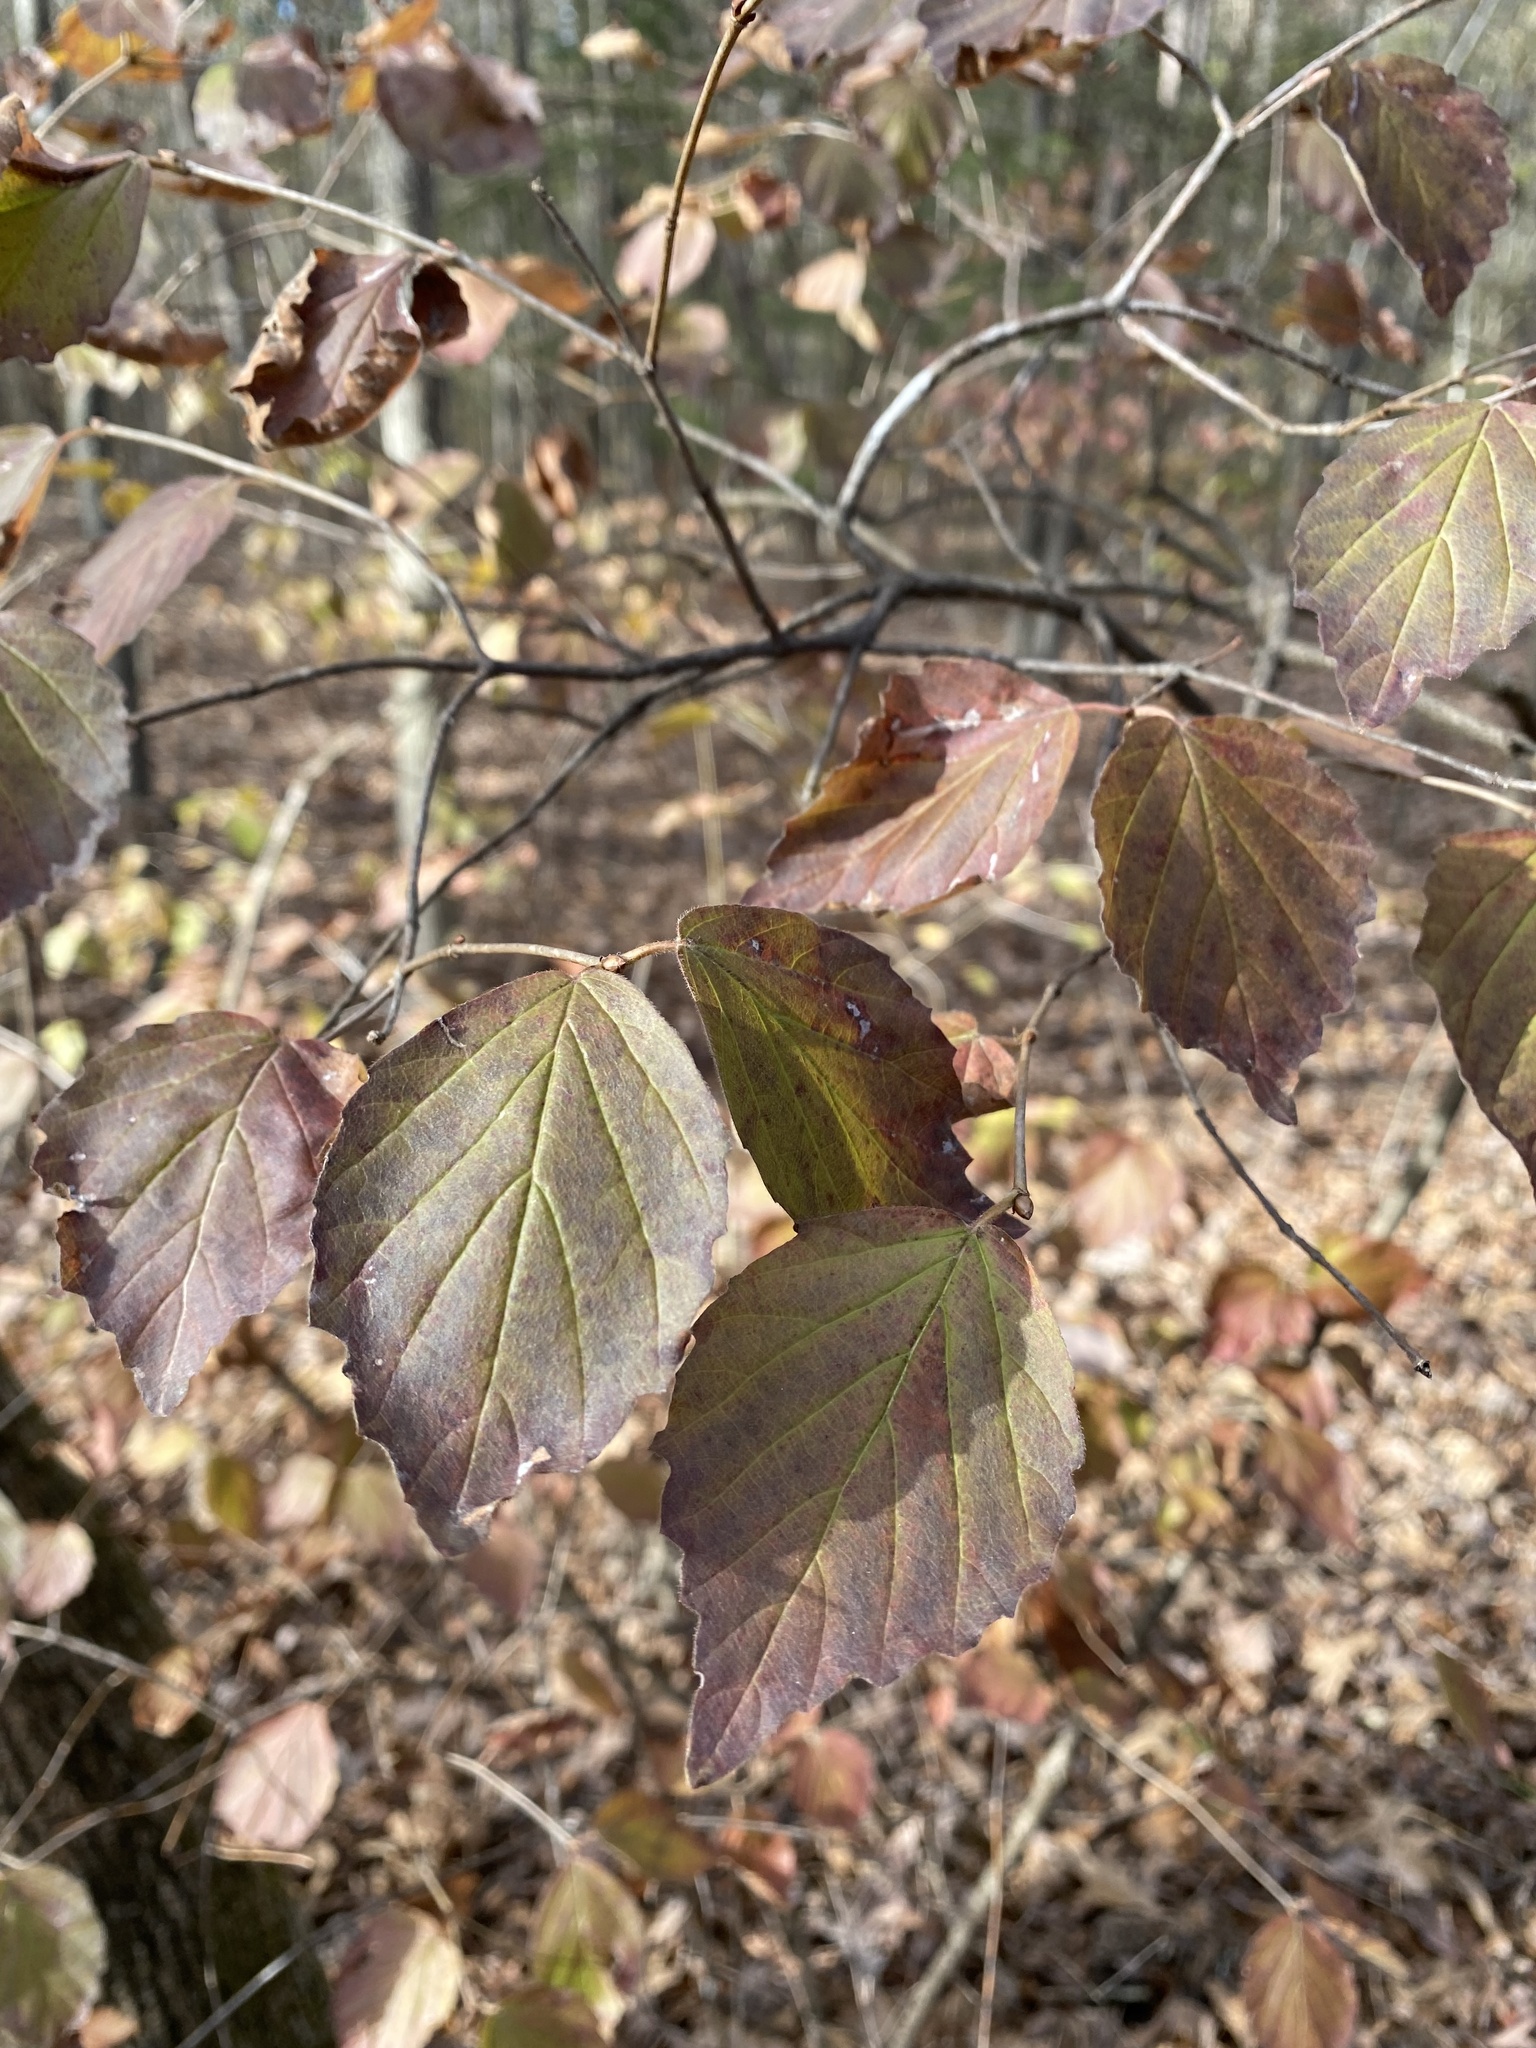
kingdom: Plantae
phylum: Tracheophyta
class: Magnoliopsida
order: Dipsacales
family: Viburnaceae
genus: Viburnum
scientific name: Viburnum rafinesqueanum
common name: Downy arrow-wood
